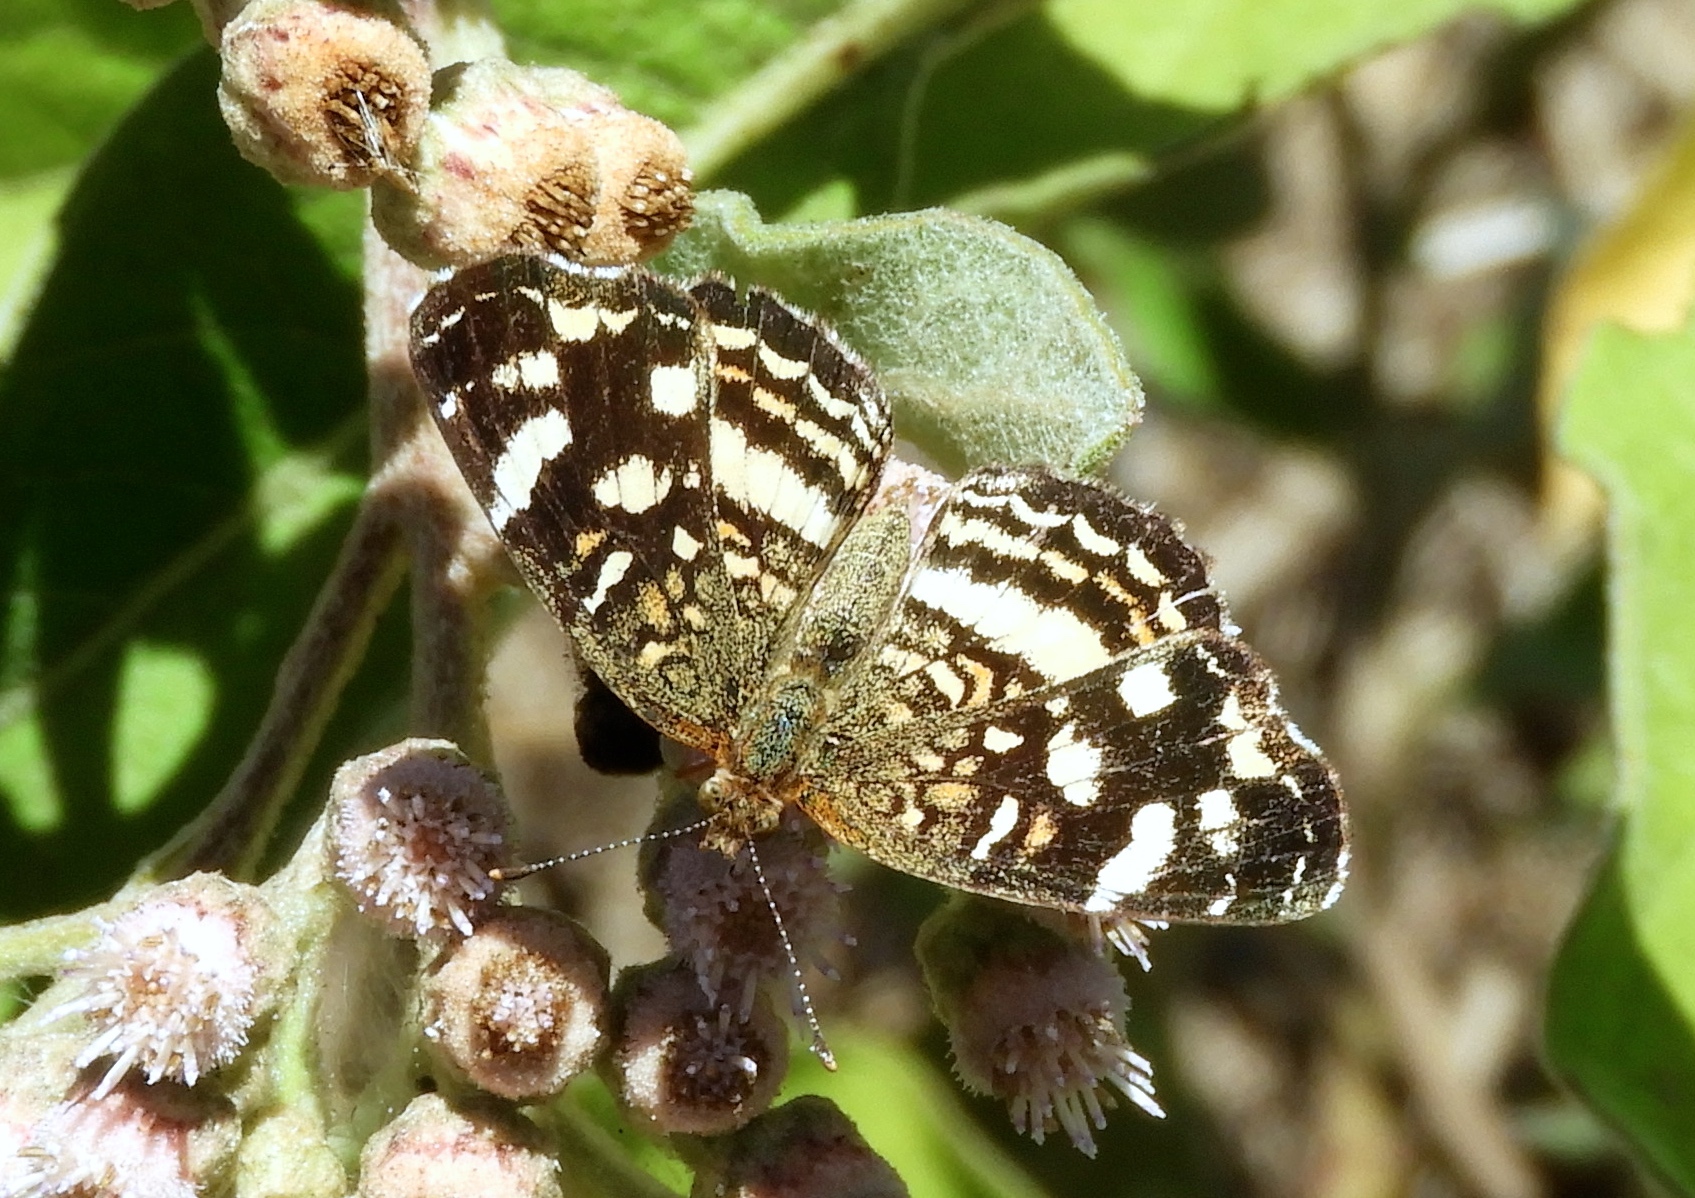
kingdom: Animalia
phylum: Arthropoda
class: Insecta
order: Lepidoptera
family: Nymphalidae
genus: Anthanassa
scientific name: Anthanassa tulcis
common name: Pale-banded crescent
